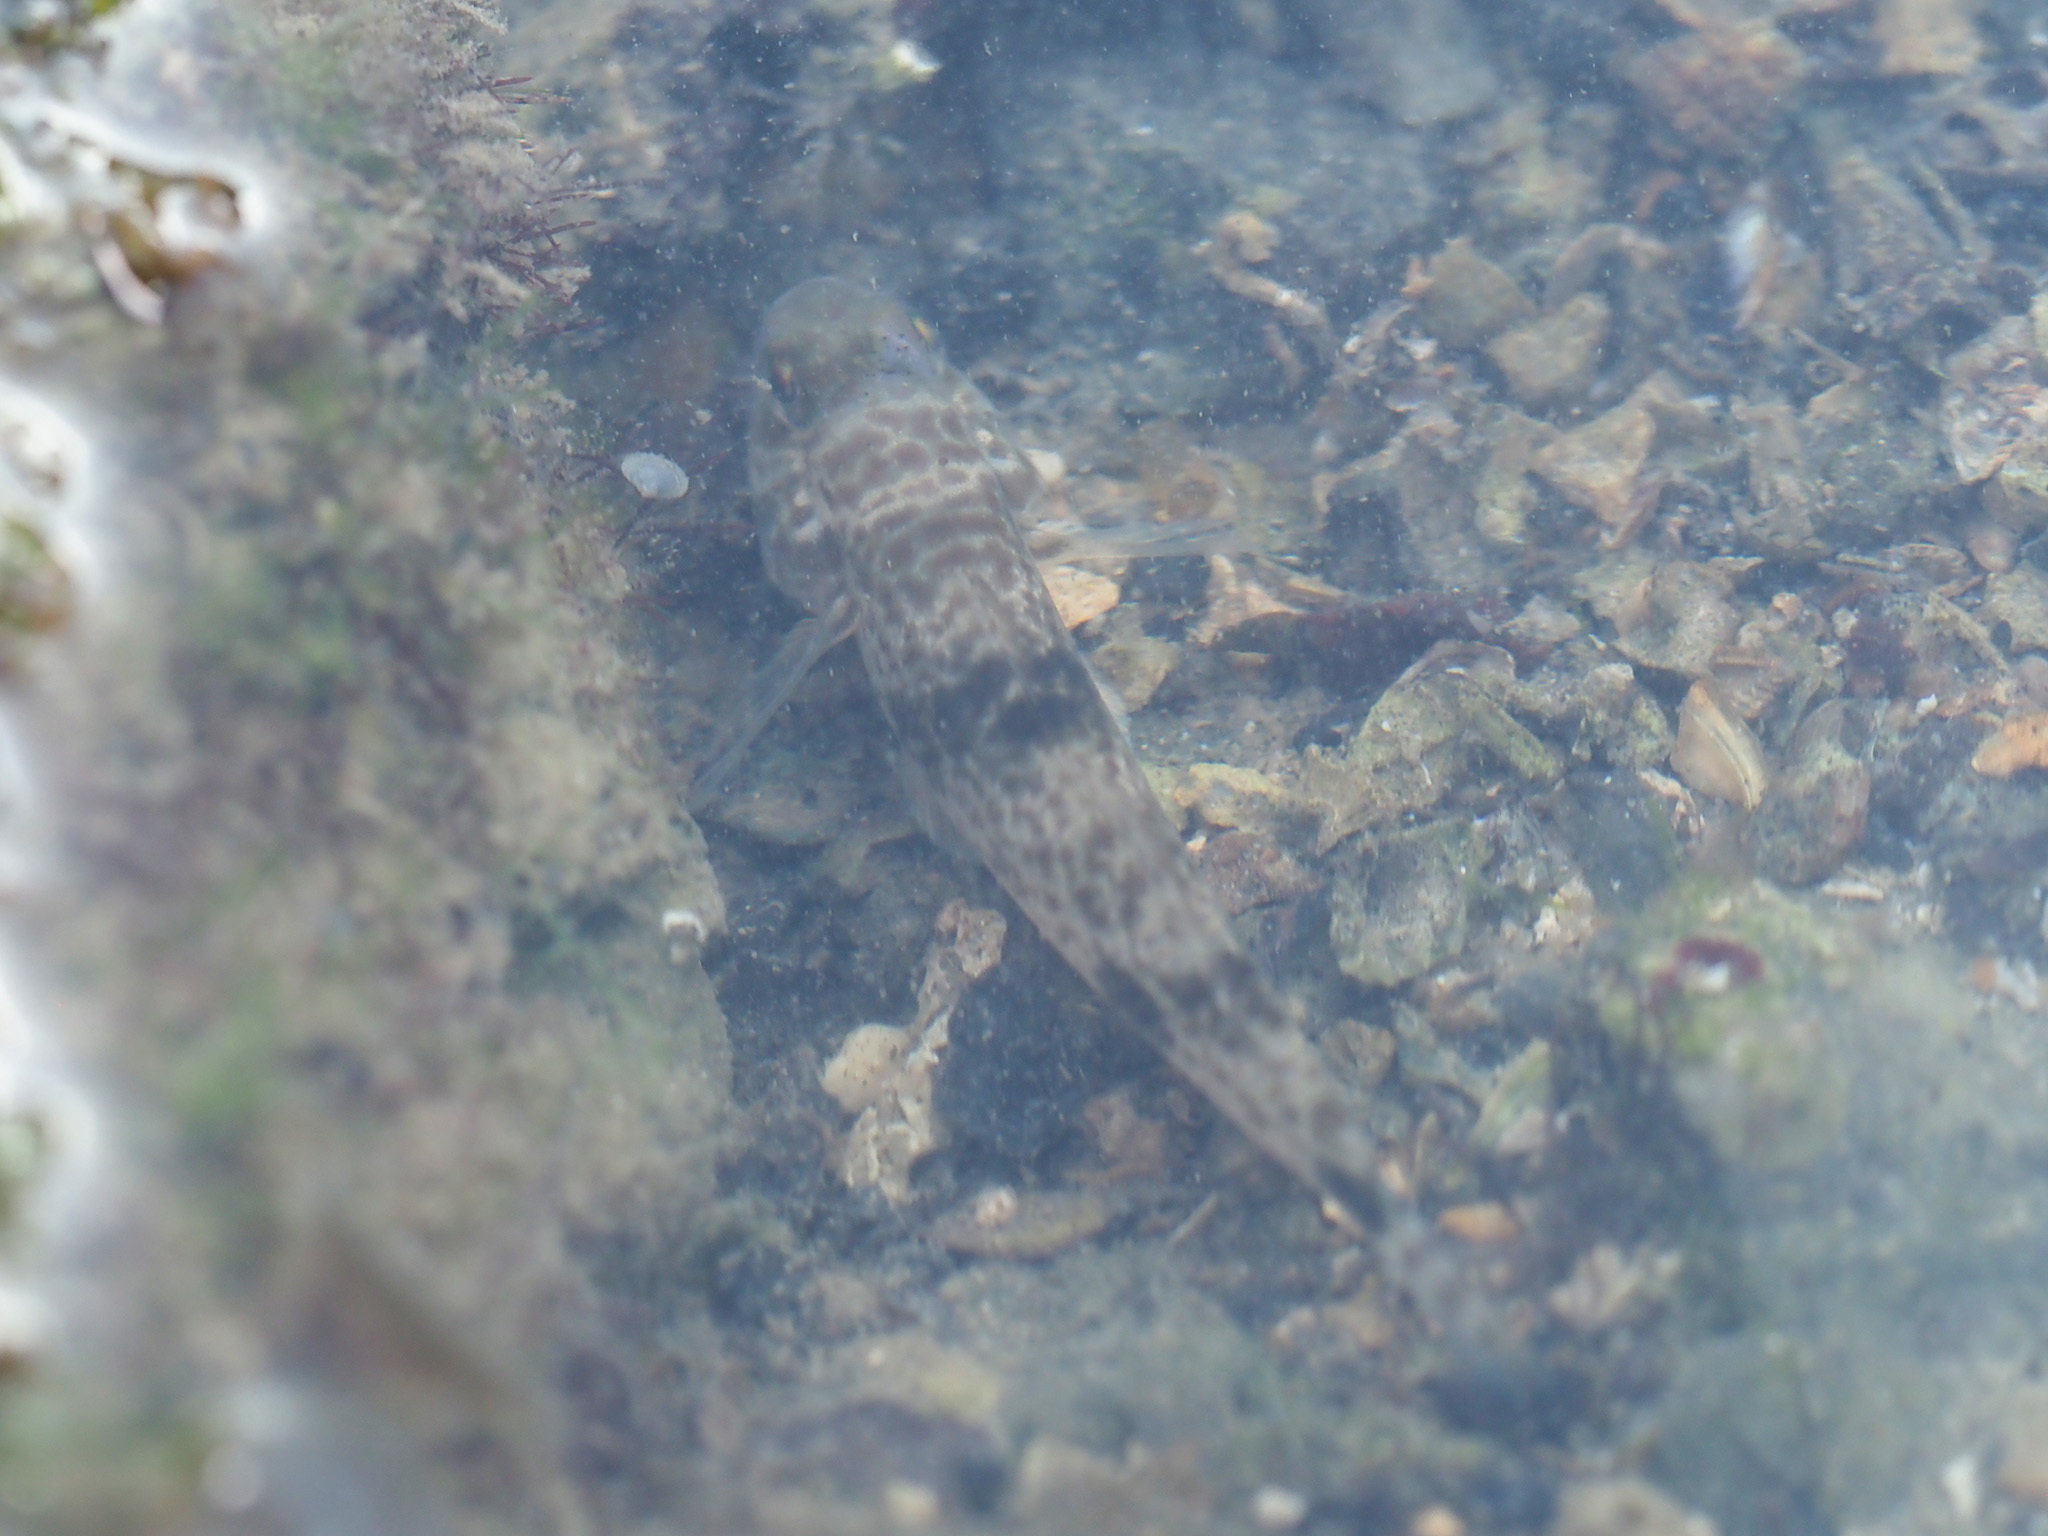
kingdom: Animalia
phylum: Chordata
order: Perciformes
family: Gobiidae
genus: Acentrogobius
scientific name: Acentrogobius nebulosus
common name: Shadow goby
